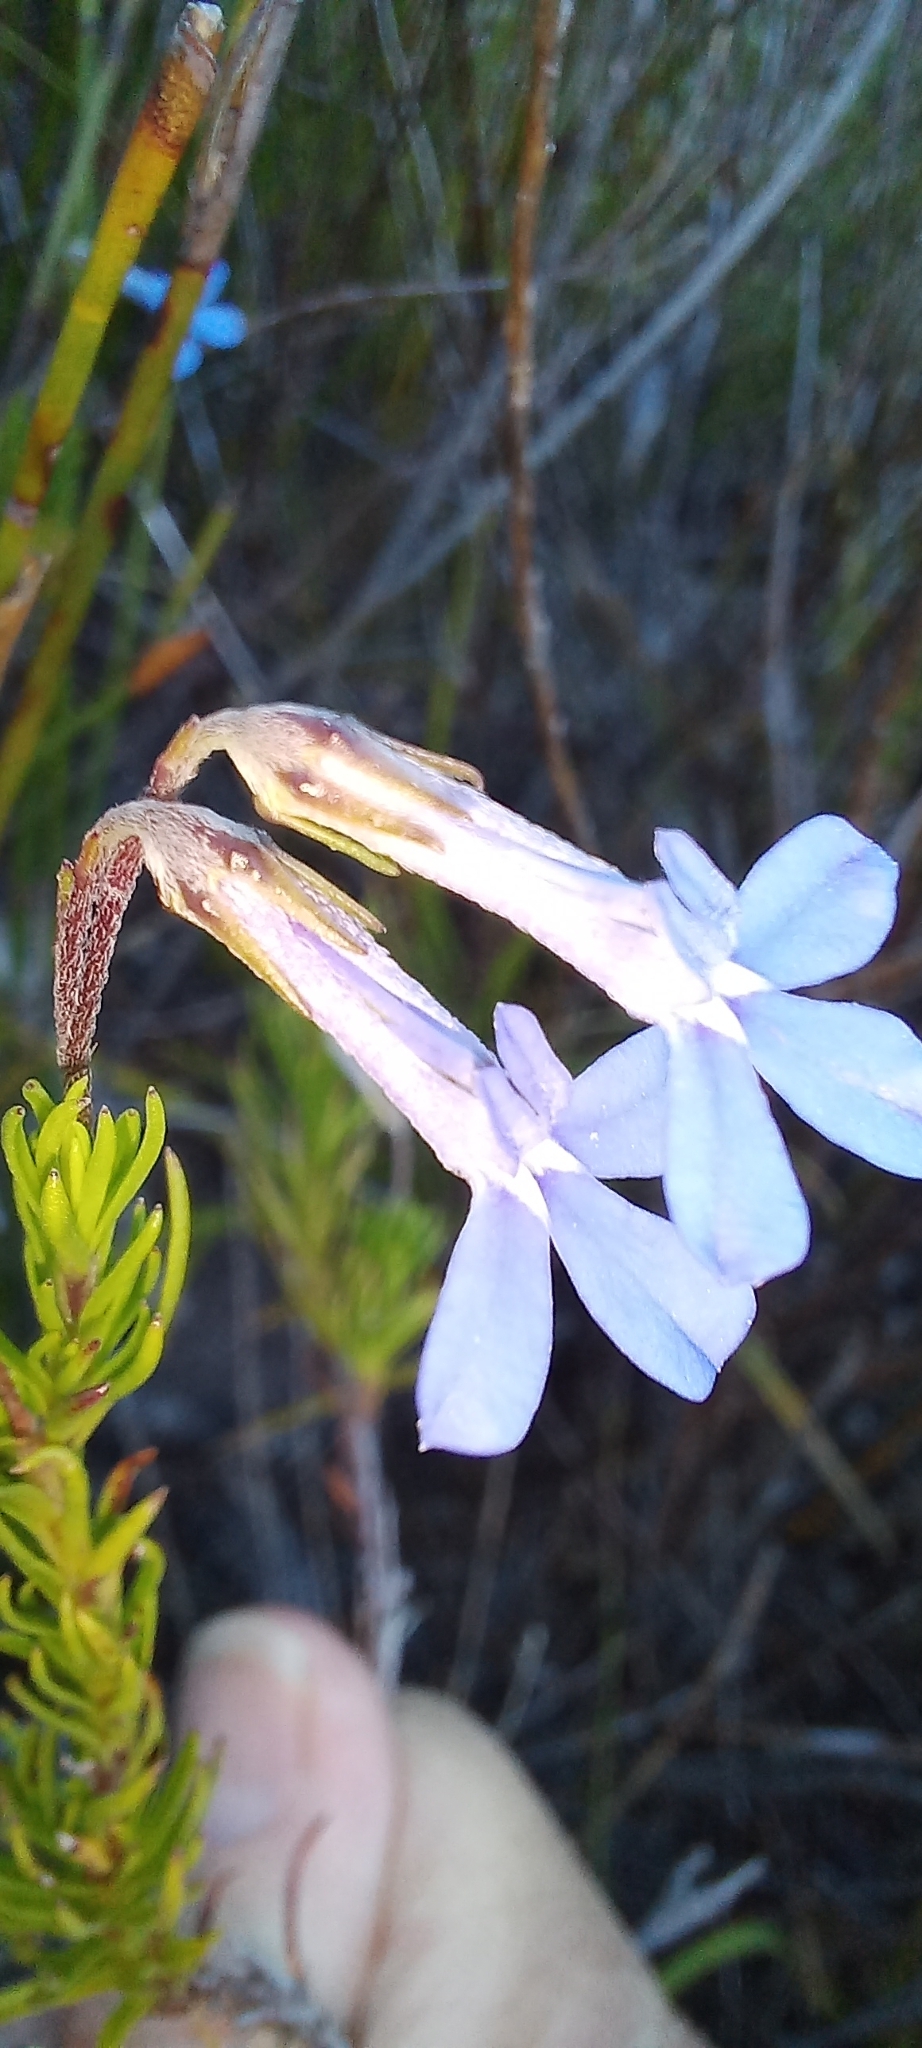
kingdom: Plantae
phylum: Tracheophyta
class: Magnoliopsida
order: Asterales
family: Campanulaceae
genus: Lobelia
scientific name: Lobelia pinifolia
